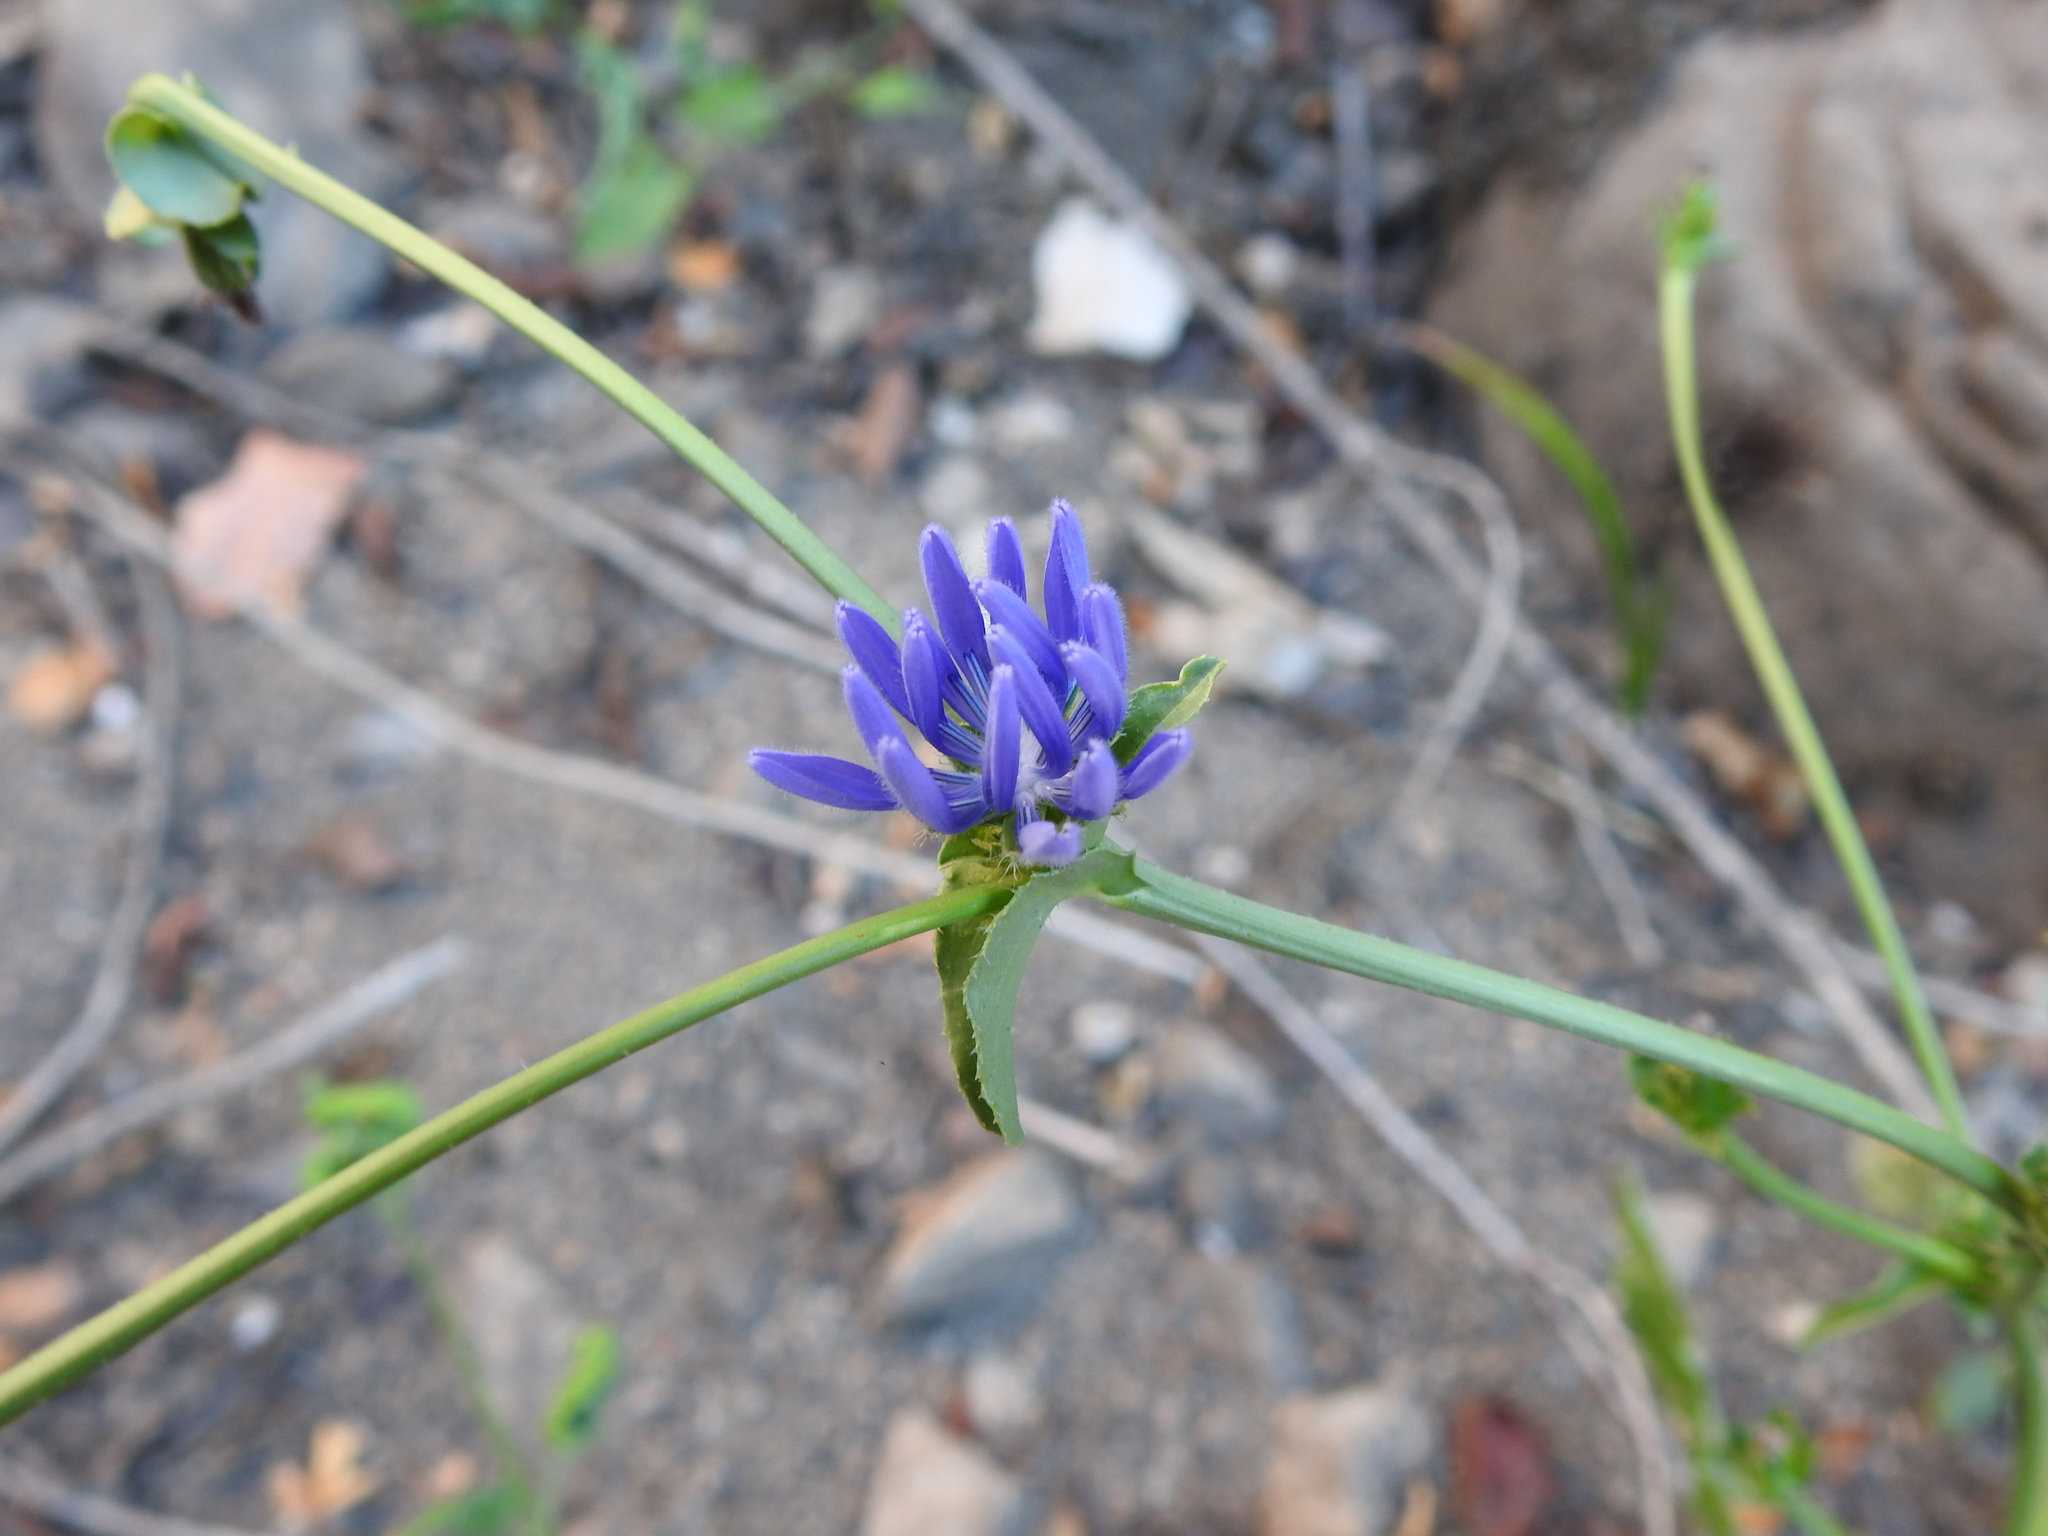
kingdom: Plantae
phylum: Tracheophyta
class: Magnoliopsida
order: Asterales
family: Asteraceae
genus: Cichorium
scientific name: Cichorium intybus
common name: Chicory
